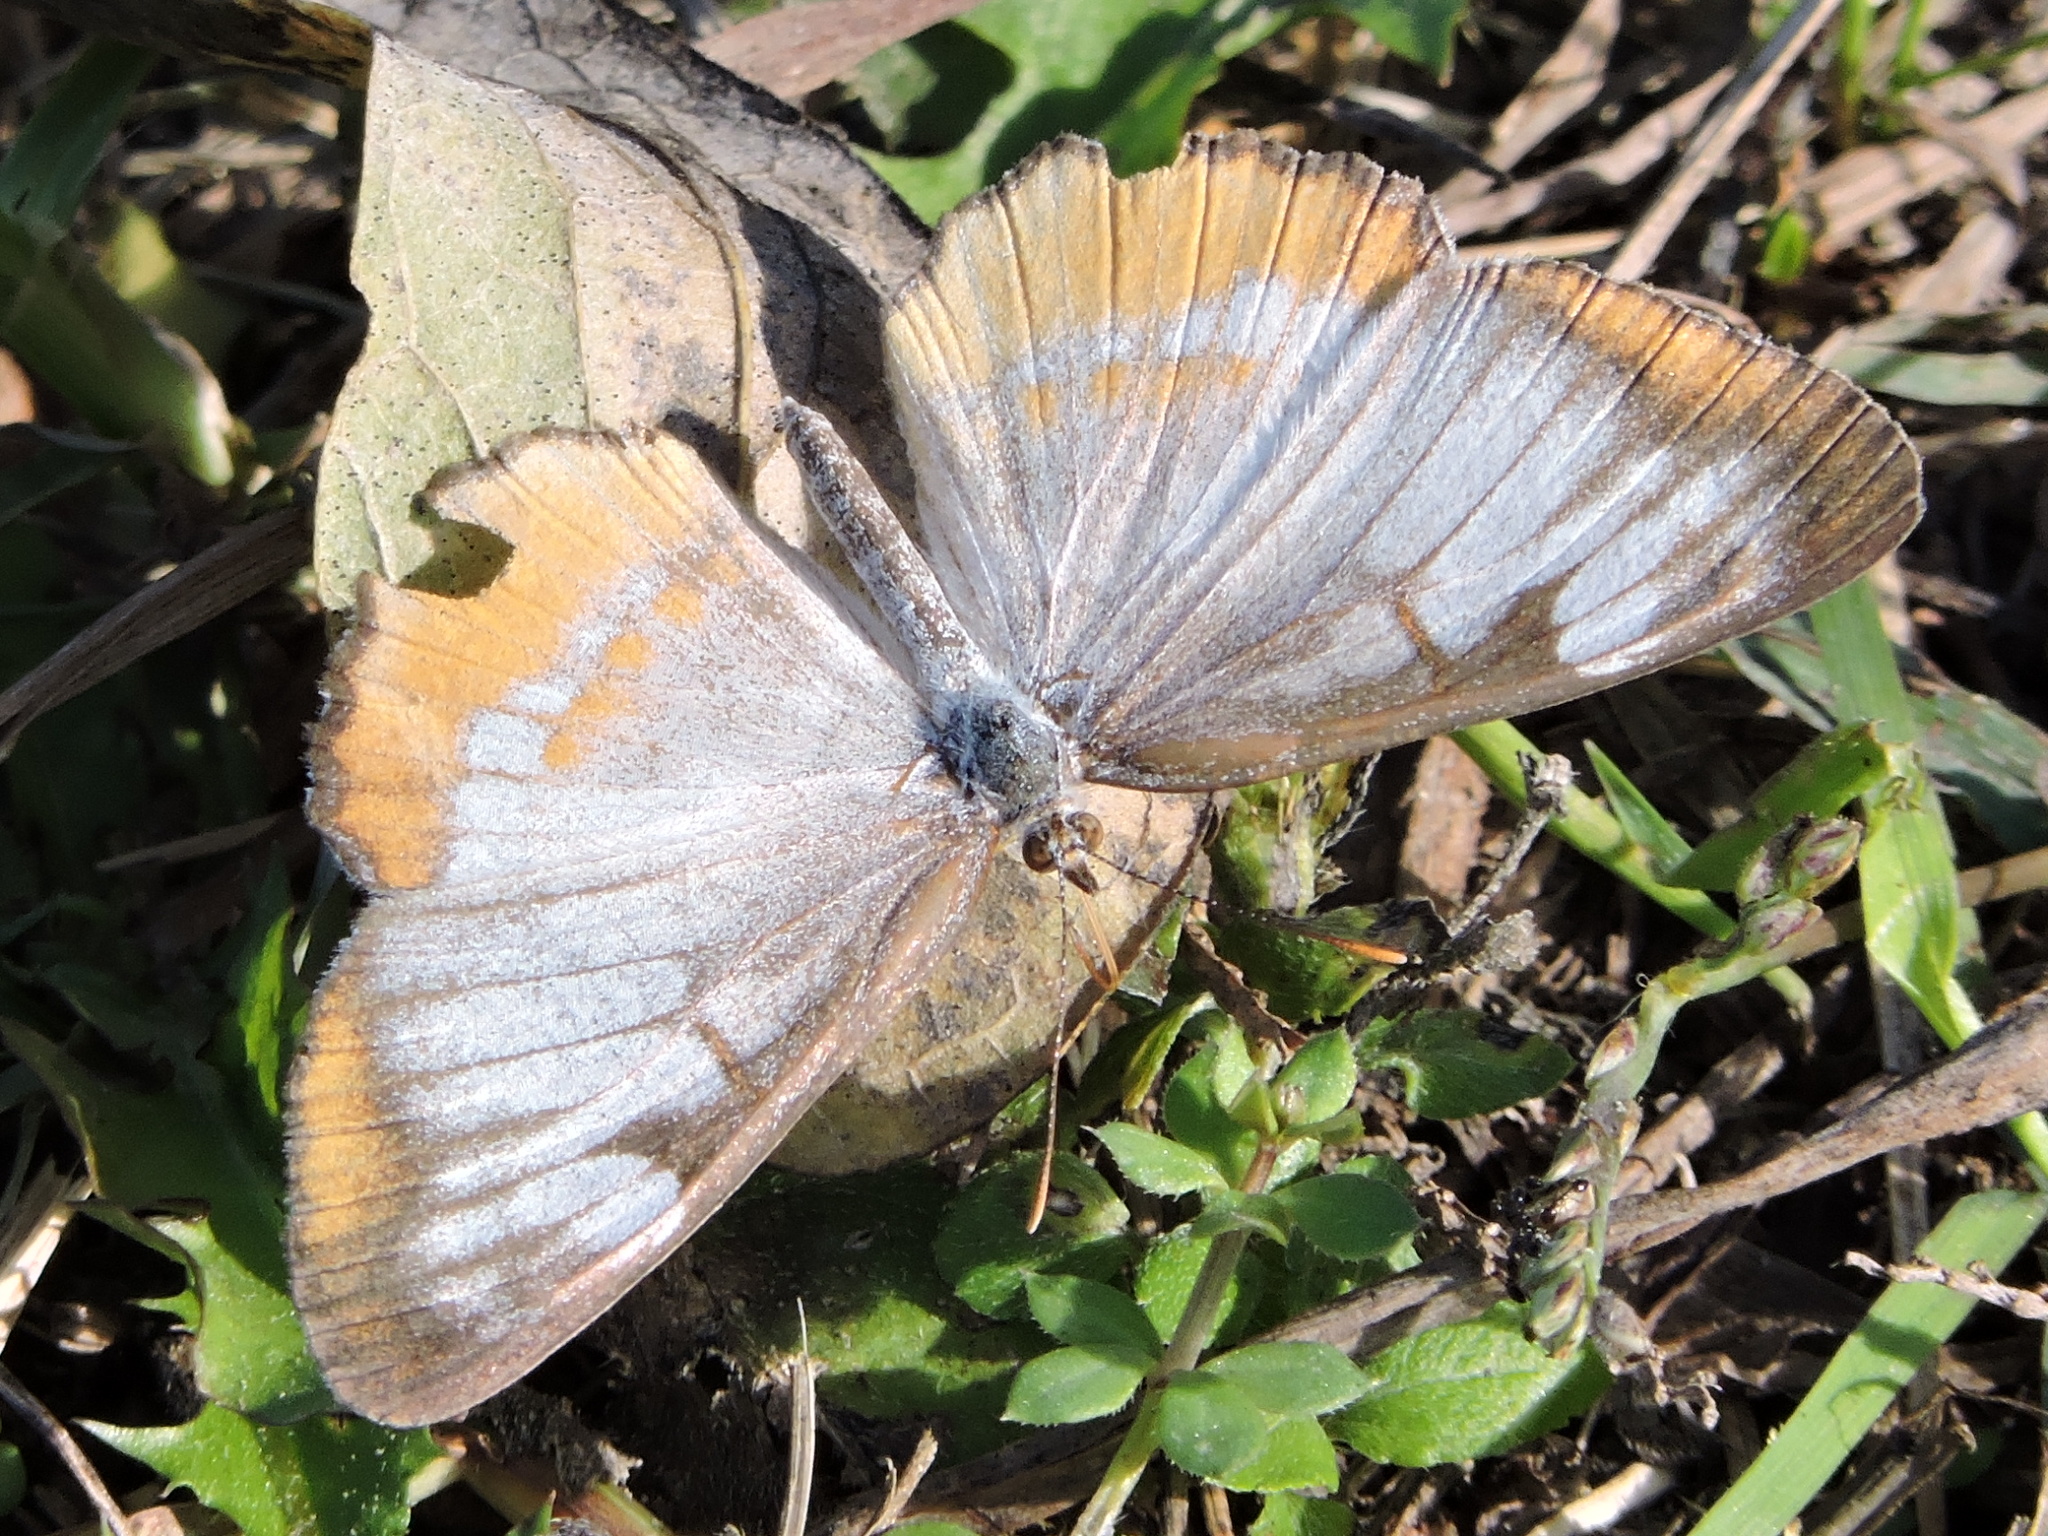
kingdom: Animalia
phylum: Arthropoda
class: Insecta
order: Lepidoptera
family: Nymphalidae
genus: Mestra
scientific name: Mestra amymone
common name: Common mestra
